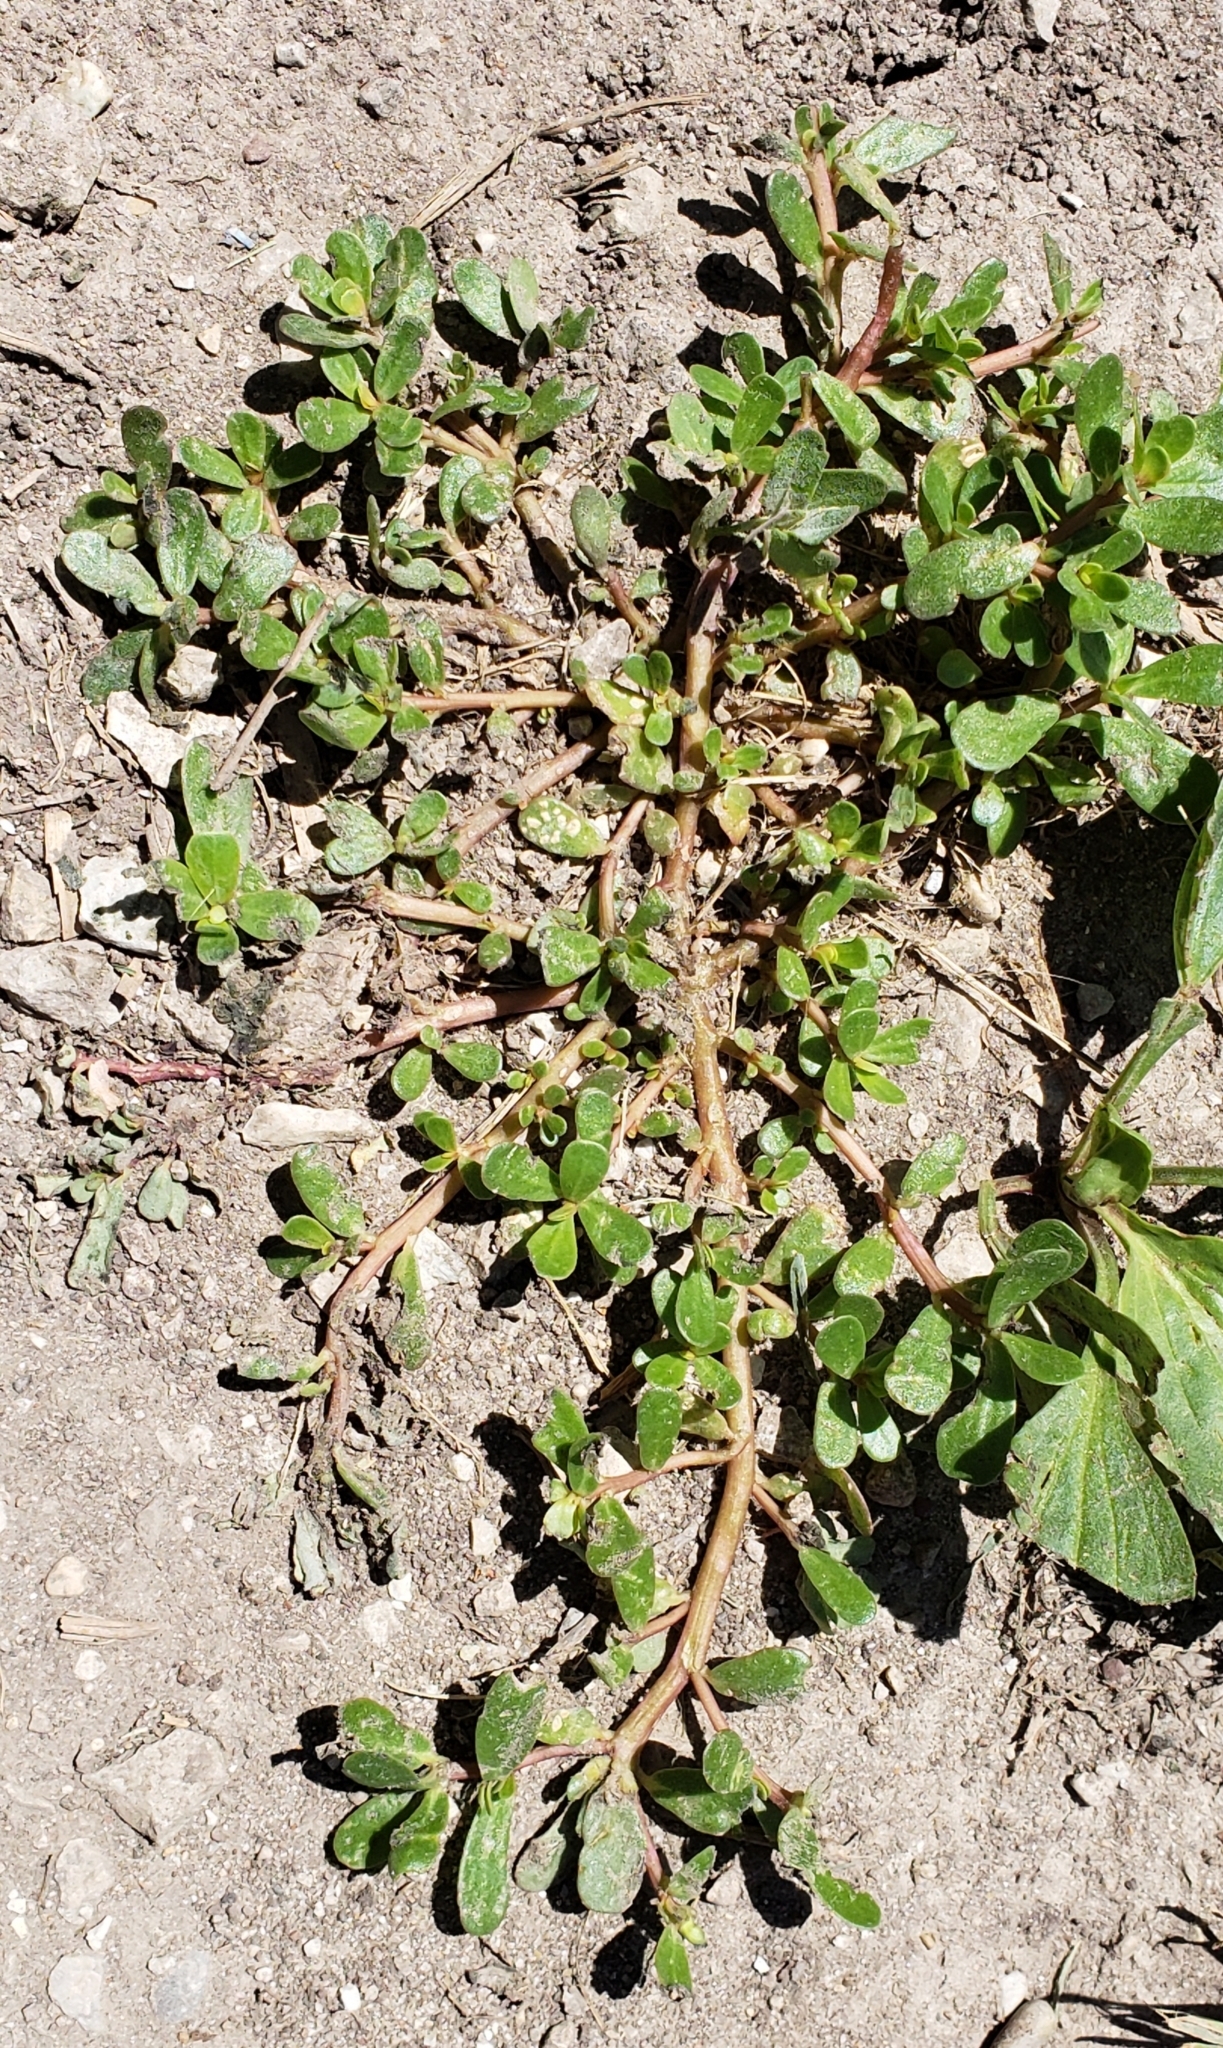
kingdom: Plantae
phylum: Tracheophyta
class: Magnoliopsida
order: Caryophyllales
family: Portulacaceae
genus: Portulaca
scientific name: Portulaca oleracea
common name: Common purslane
